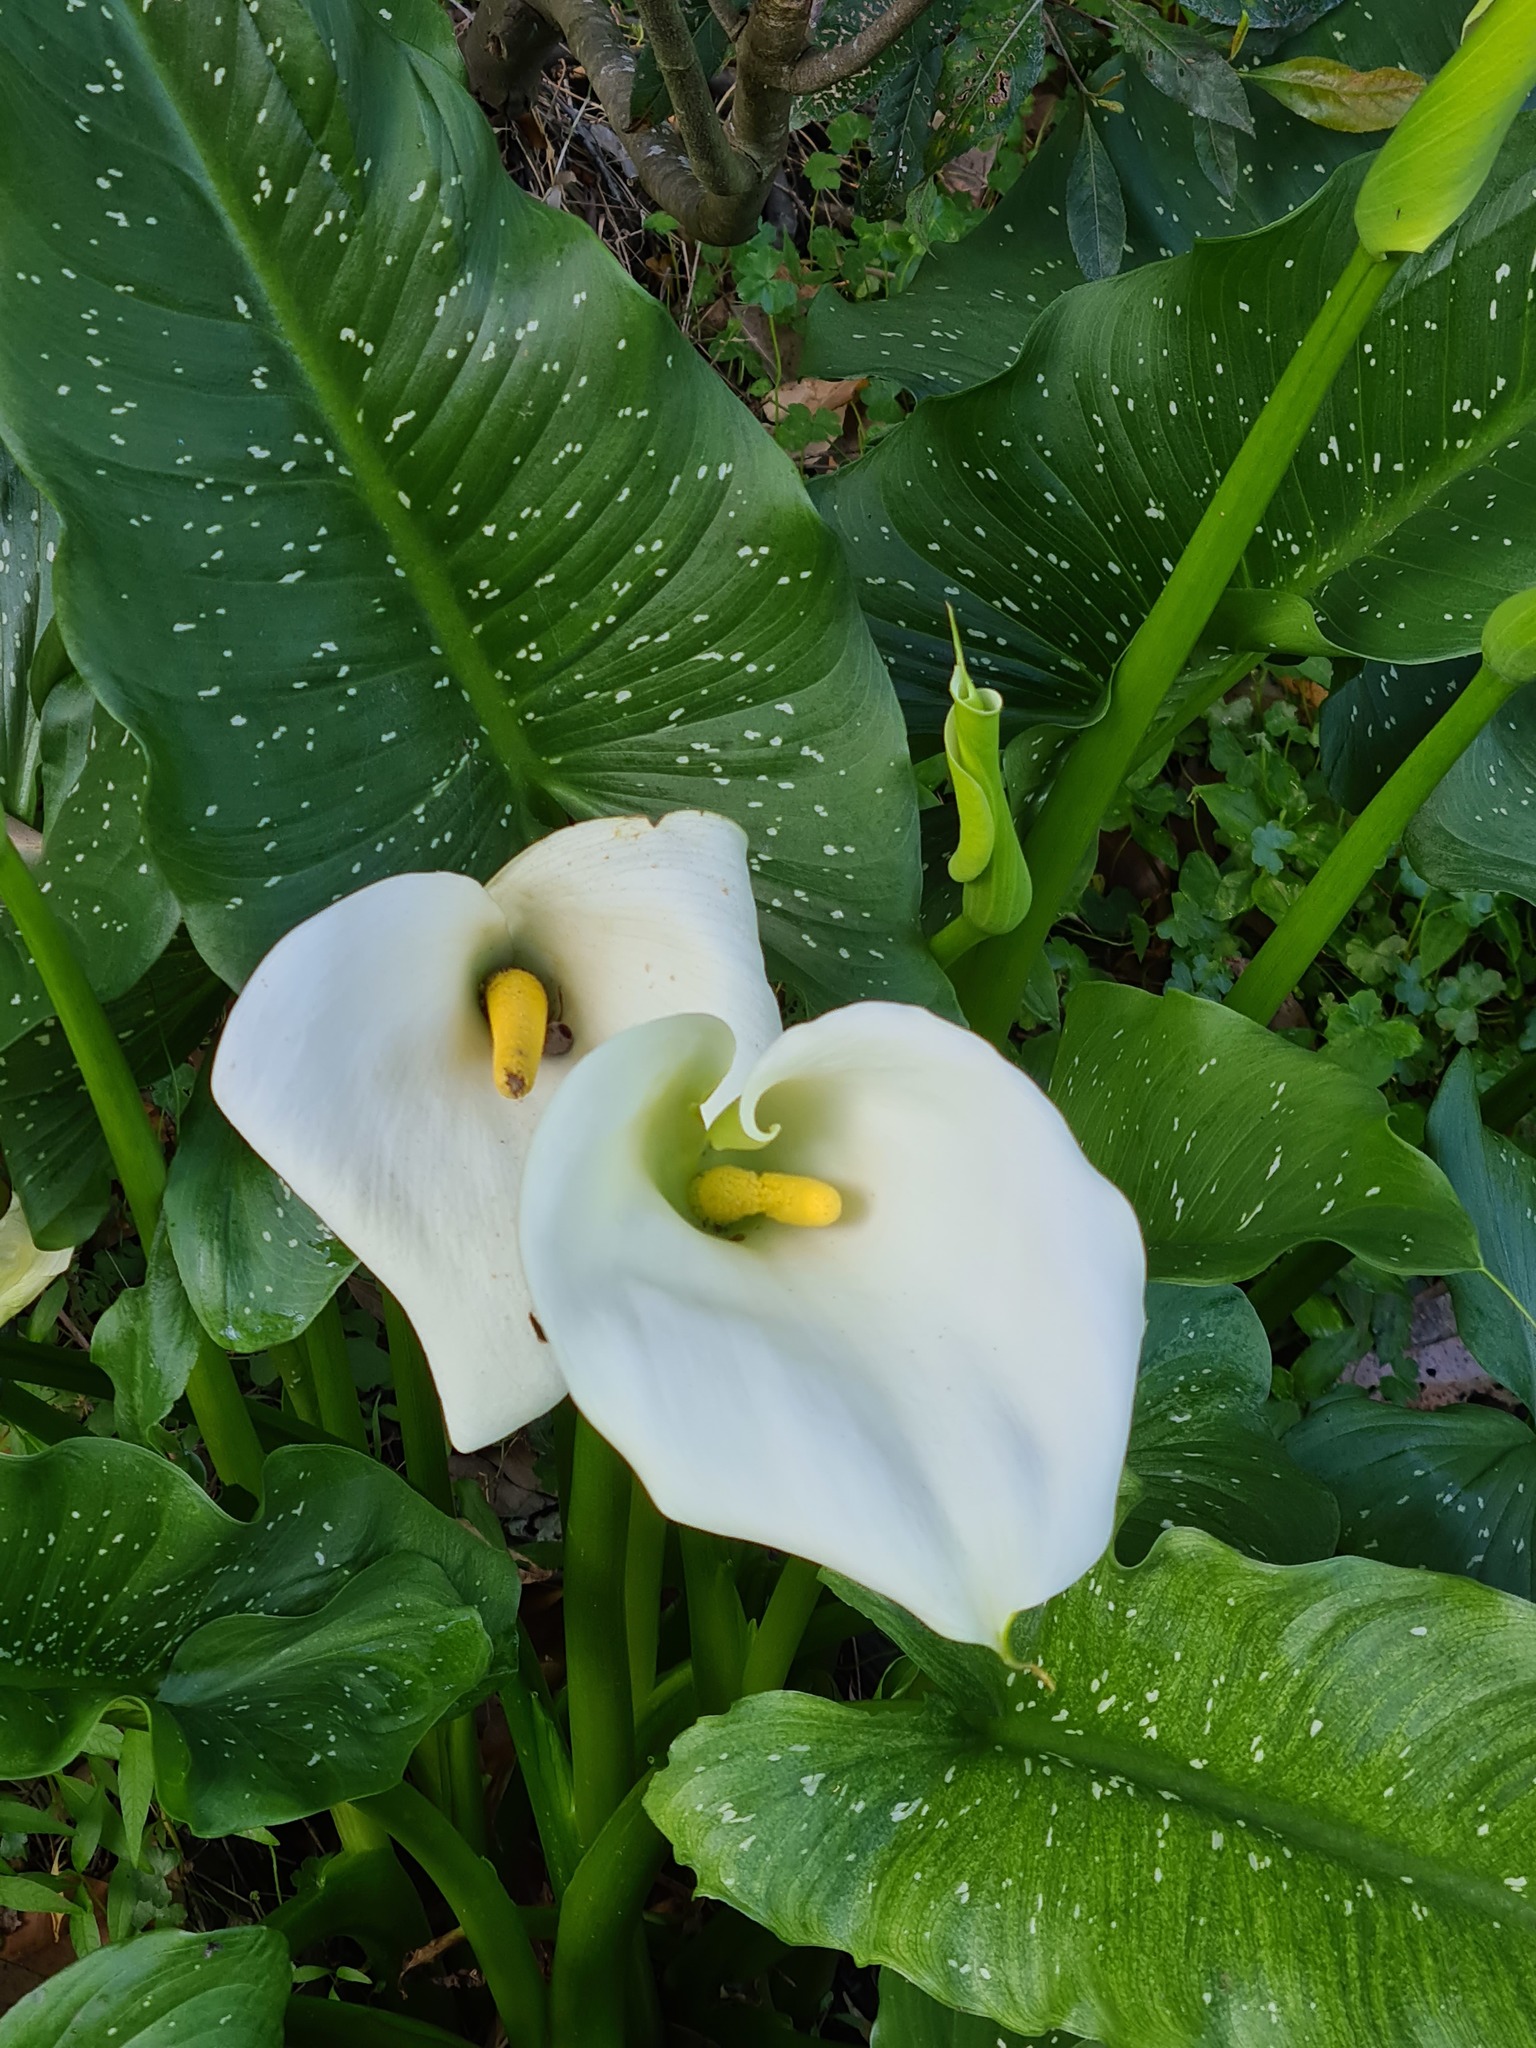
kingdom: Plantae
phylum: Tracheophyta
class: Liliopsida
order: Alismatales
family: Araceae
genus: Zantedeschia
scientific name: Zantedeschia aethiopica
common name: Altar-lily
